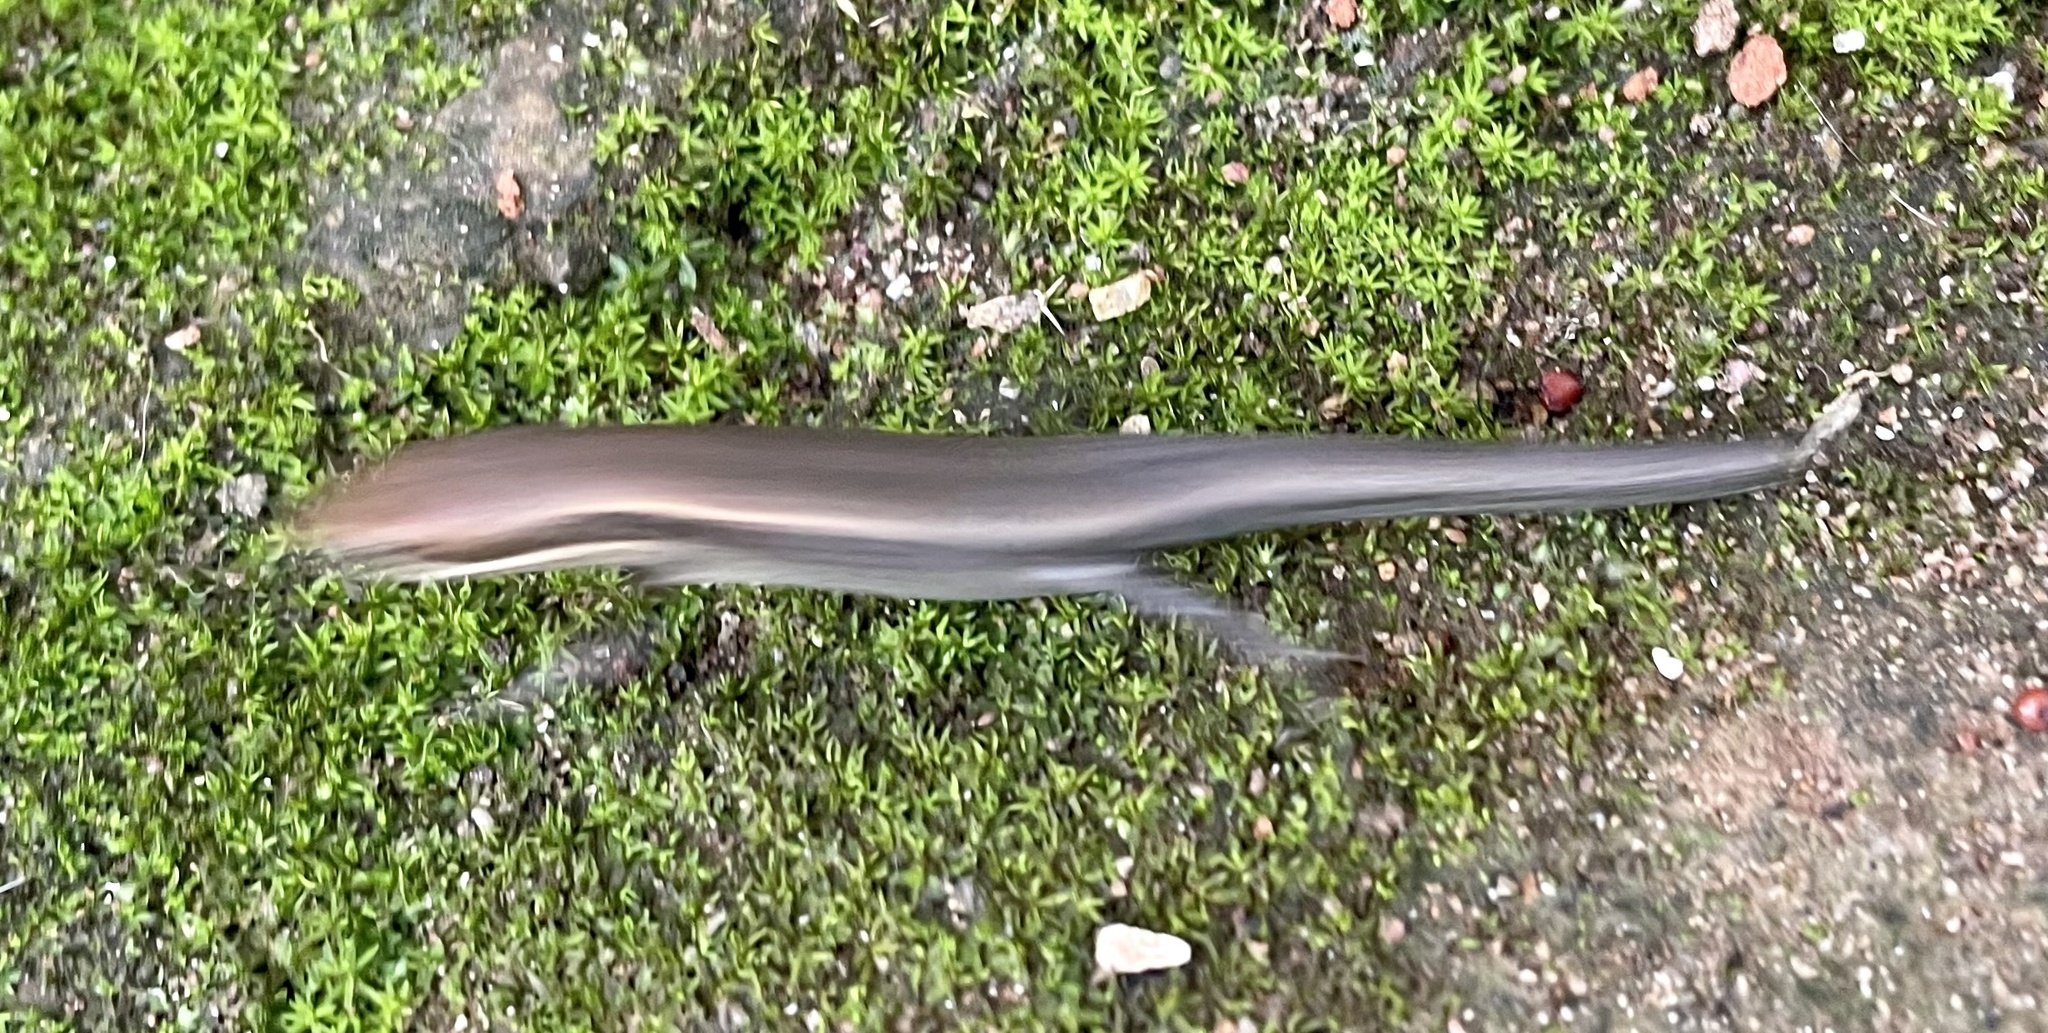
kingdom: Animalia
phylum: Chordata
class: Squamata
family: Scincidae
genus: Eutropis
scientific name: Eutropis macularia
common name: Bronze mabuya
